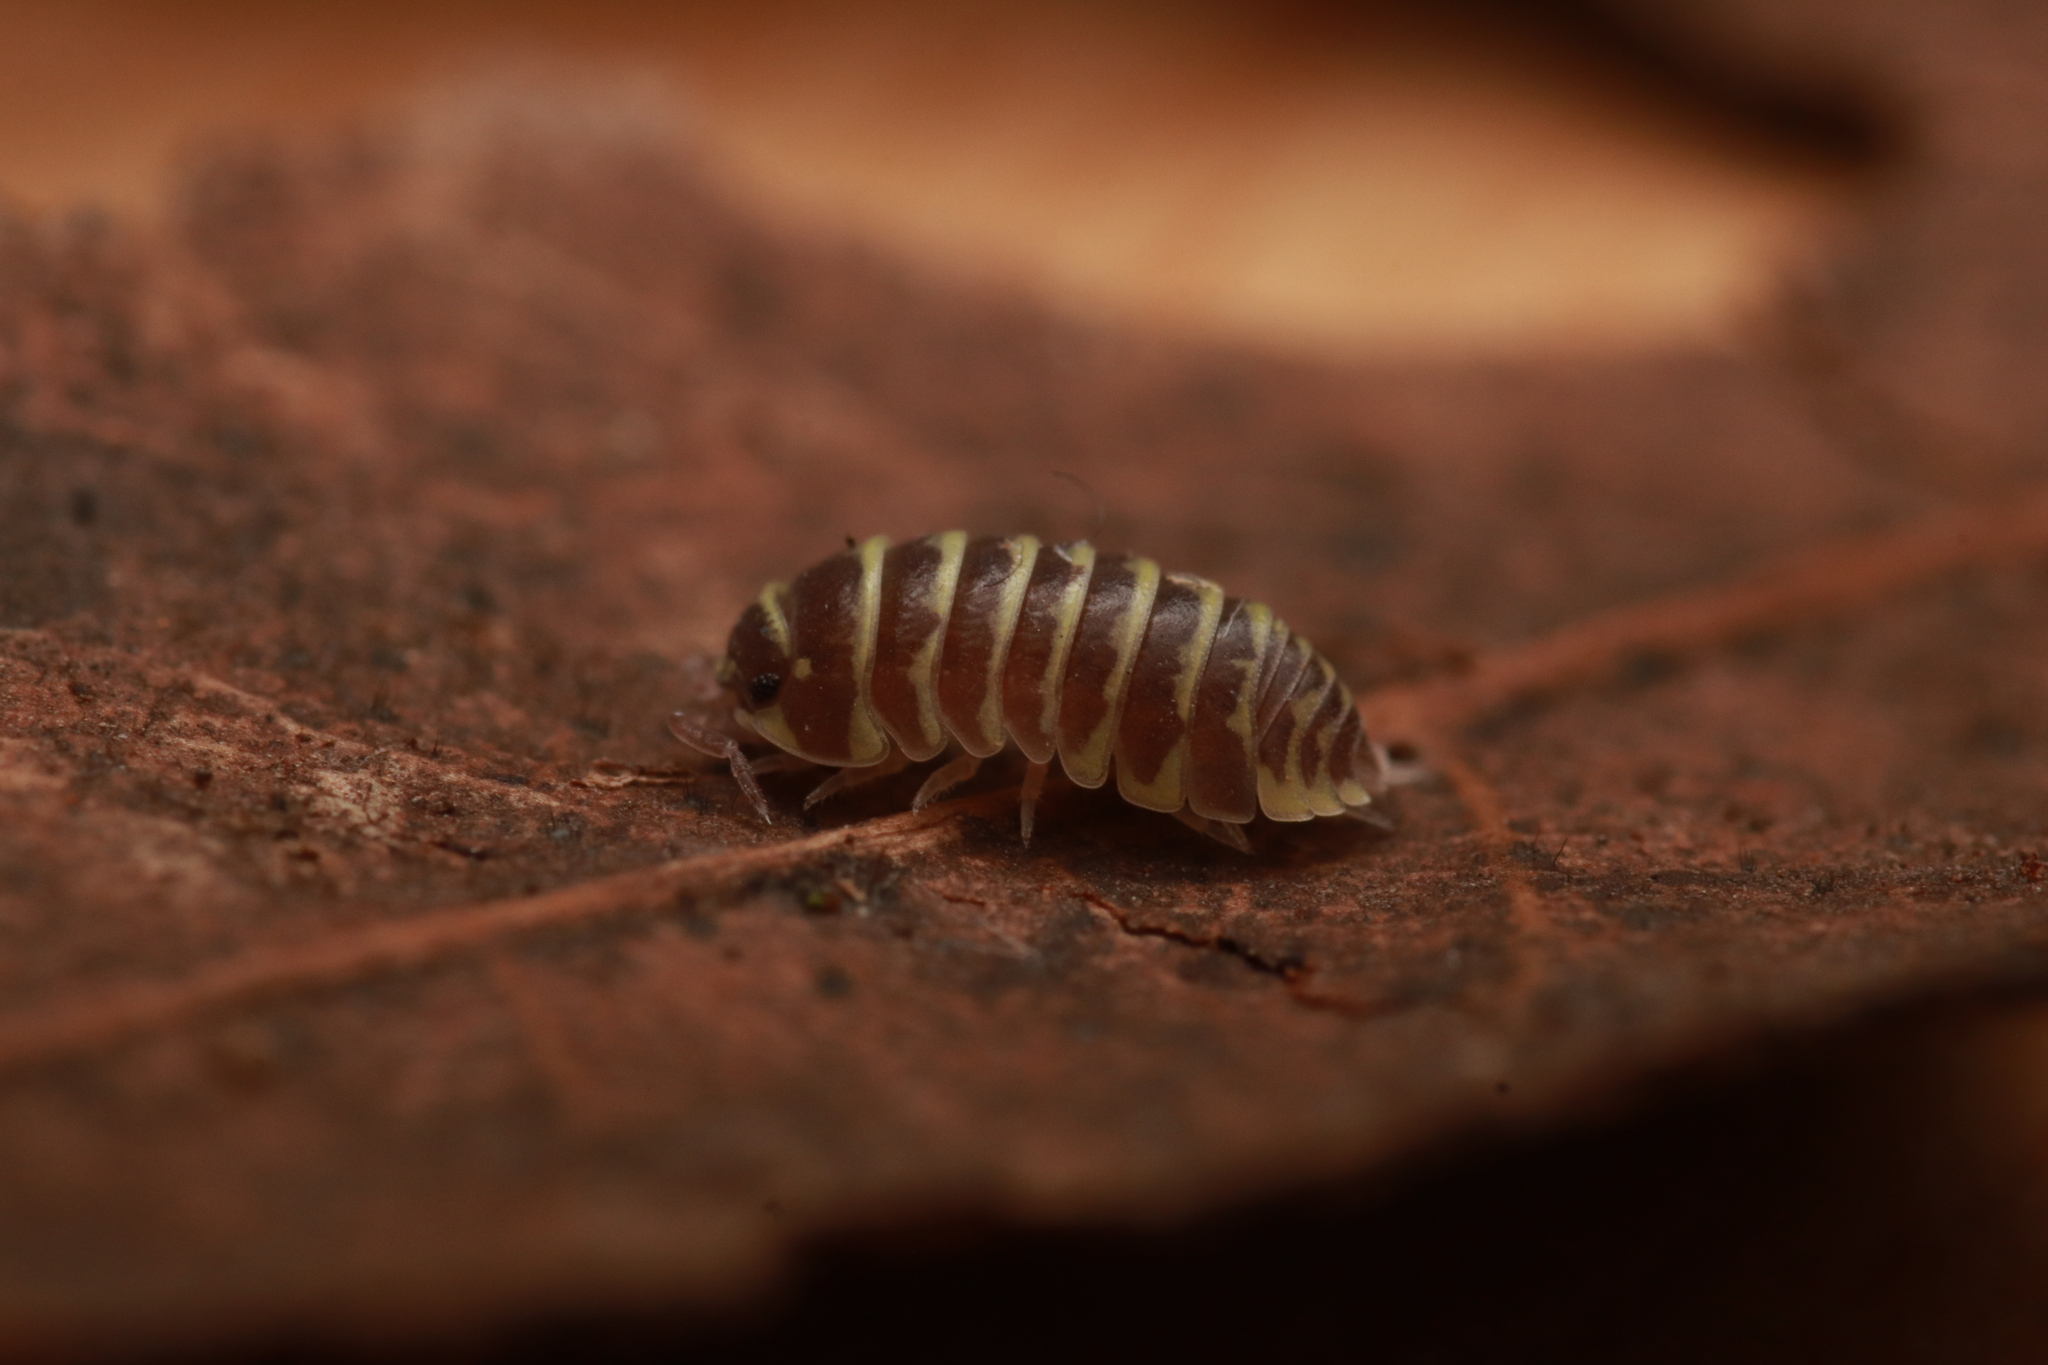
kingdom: Animalia
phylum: Arthropoda
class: Malacostraca
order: Isopoda
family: Armadillidiidae
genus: Armadillidium
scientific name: Armadillidium maculatum
